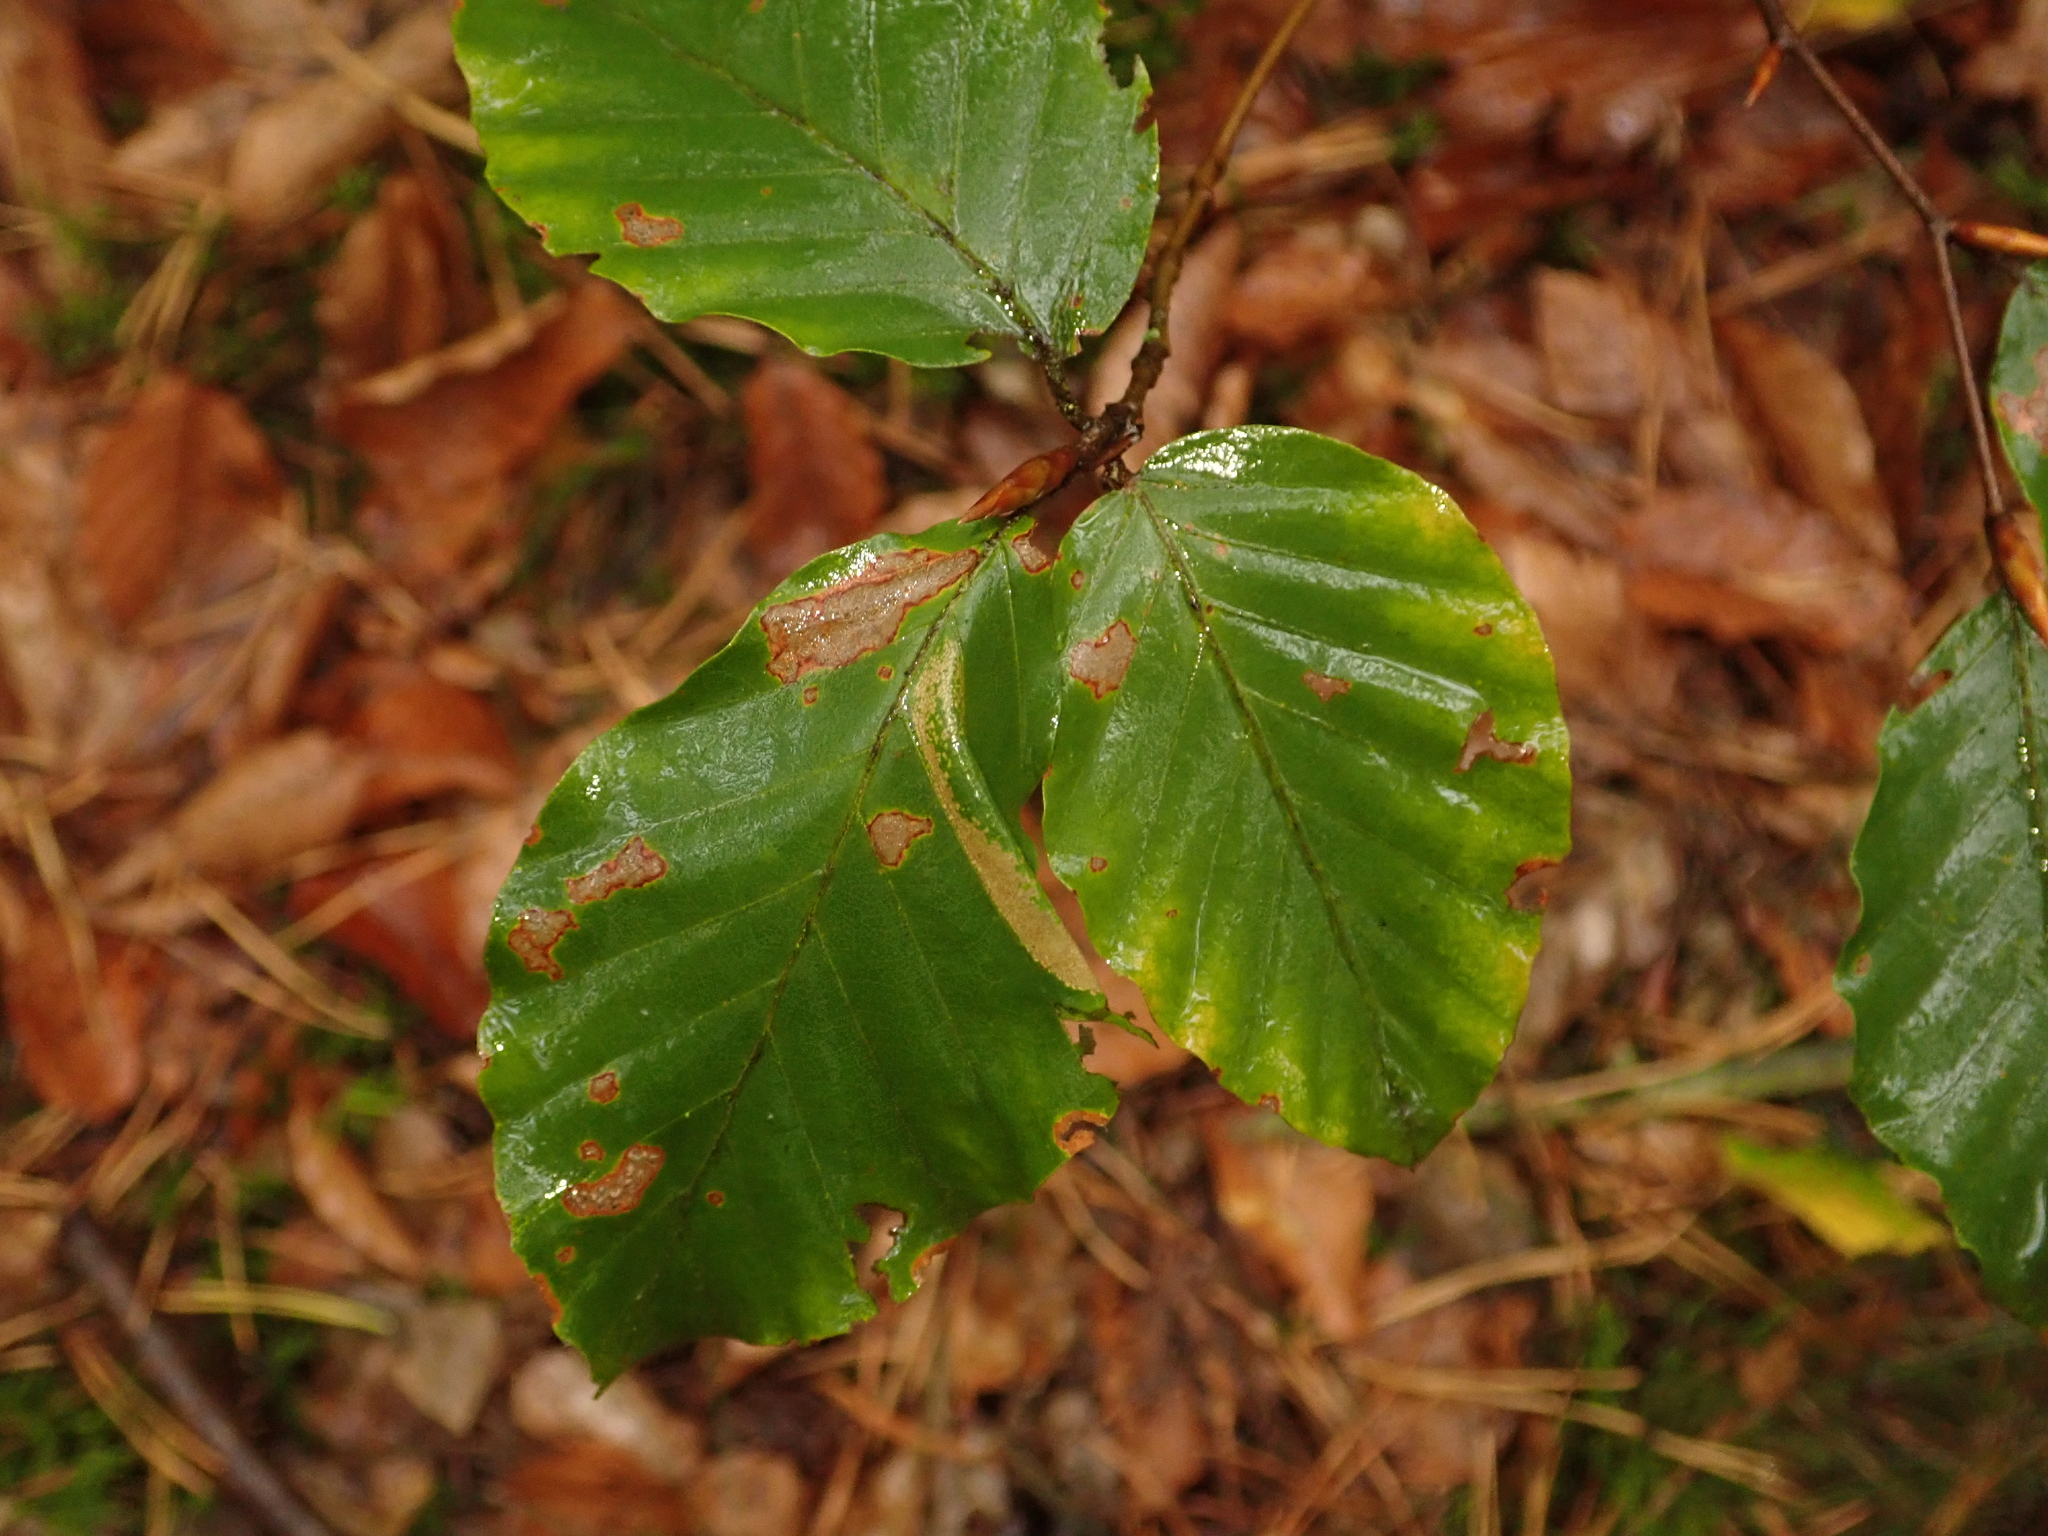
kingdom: Plantae
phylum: Tracheophyta
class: Magnoliopsida
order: Fagales
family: Fagaceae
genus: Fagus
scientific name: Fagus sylvatica
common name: Beech
